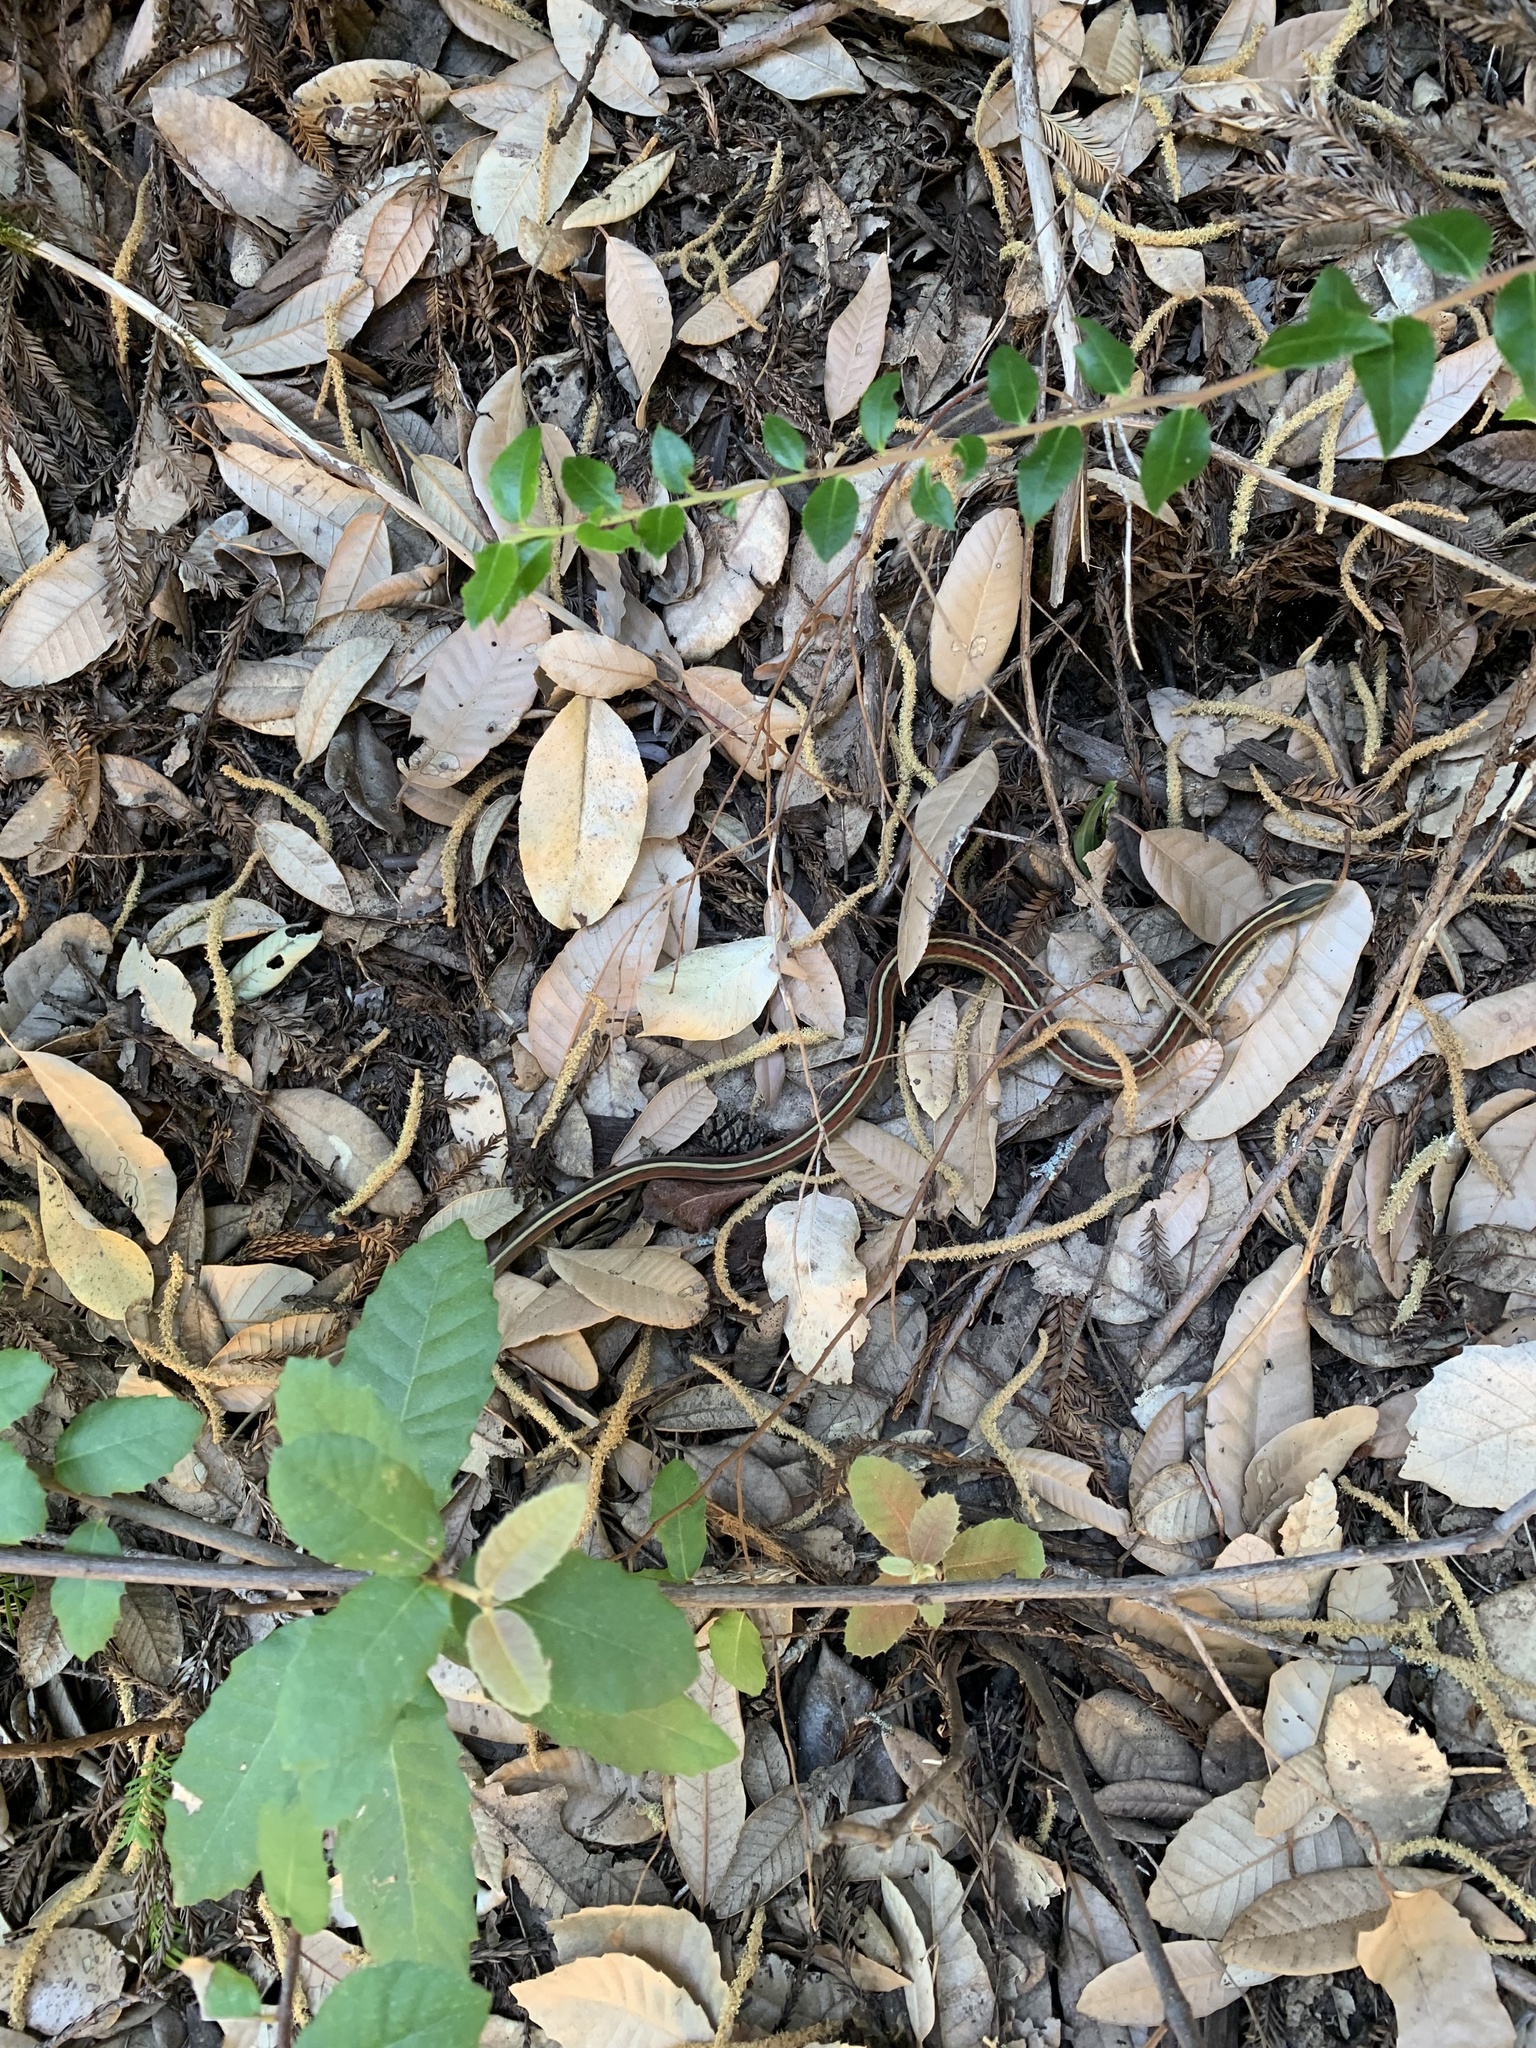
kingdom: Animalia
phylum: Chordata
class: Squamata
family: Colubridae
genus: Thamnophis
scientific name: Thamnophis elegans
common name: Western terrestrial garter snake
